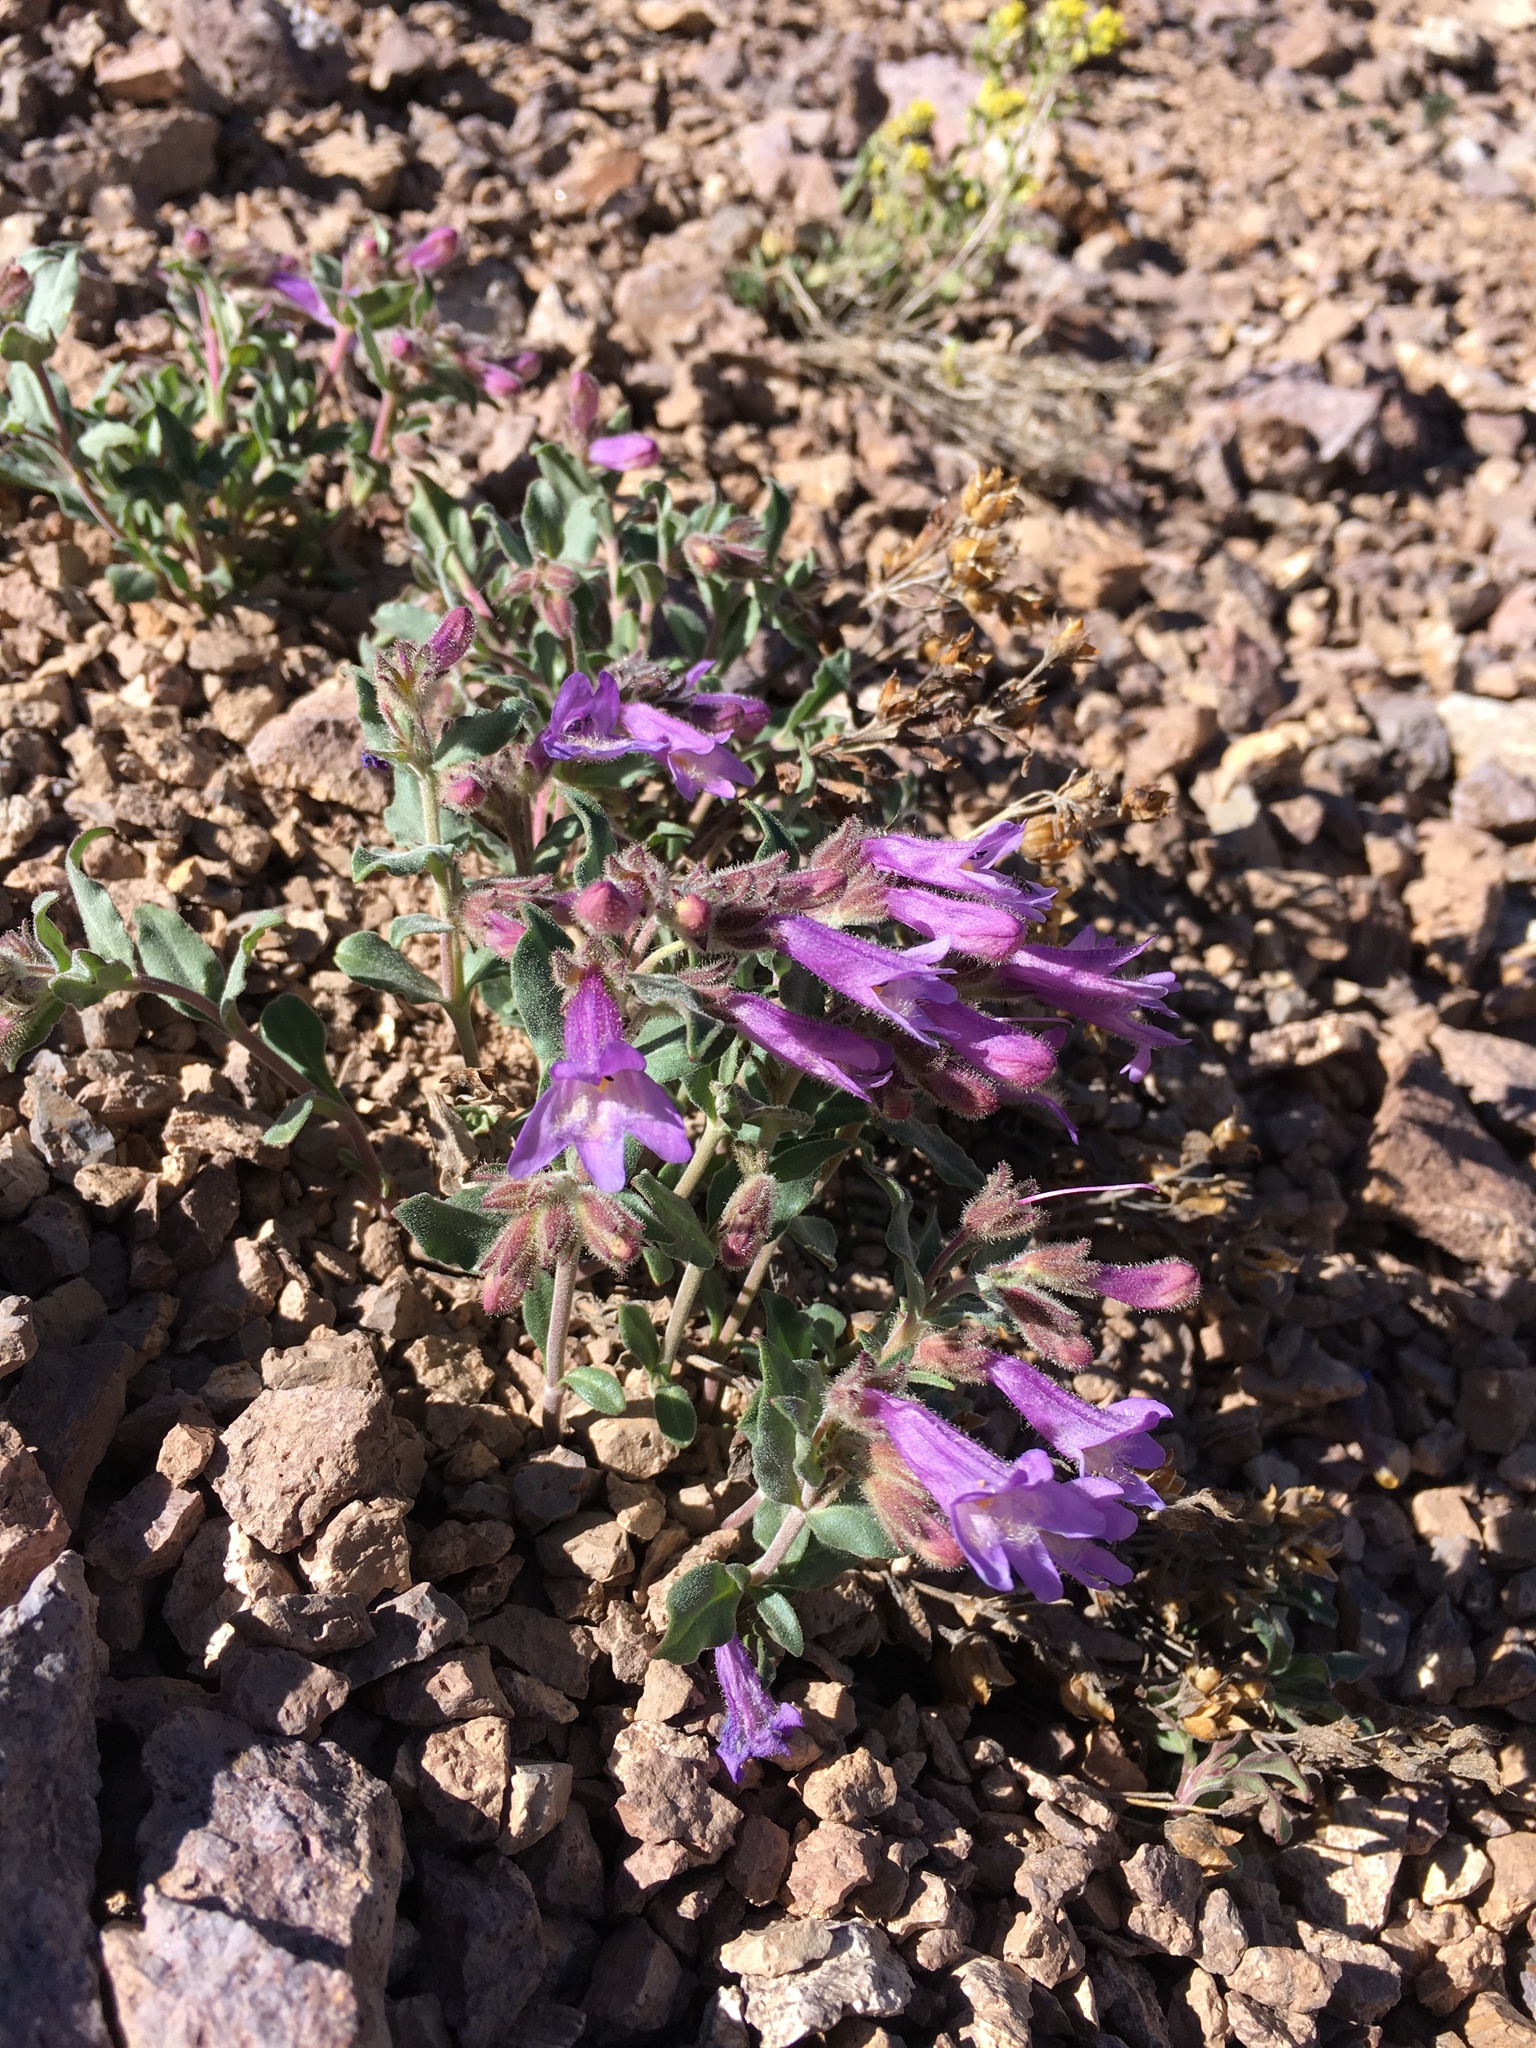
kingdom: Plantae
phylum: Tracheophyta
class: Magnoliopsida
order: Lamiales
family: Plantaginaceae
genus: Penstemon
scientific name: Penstemon caespitosus
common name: Mat penstemon
